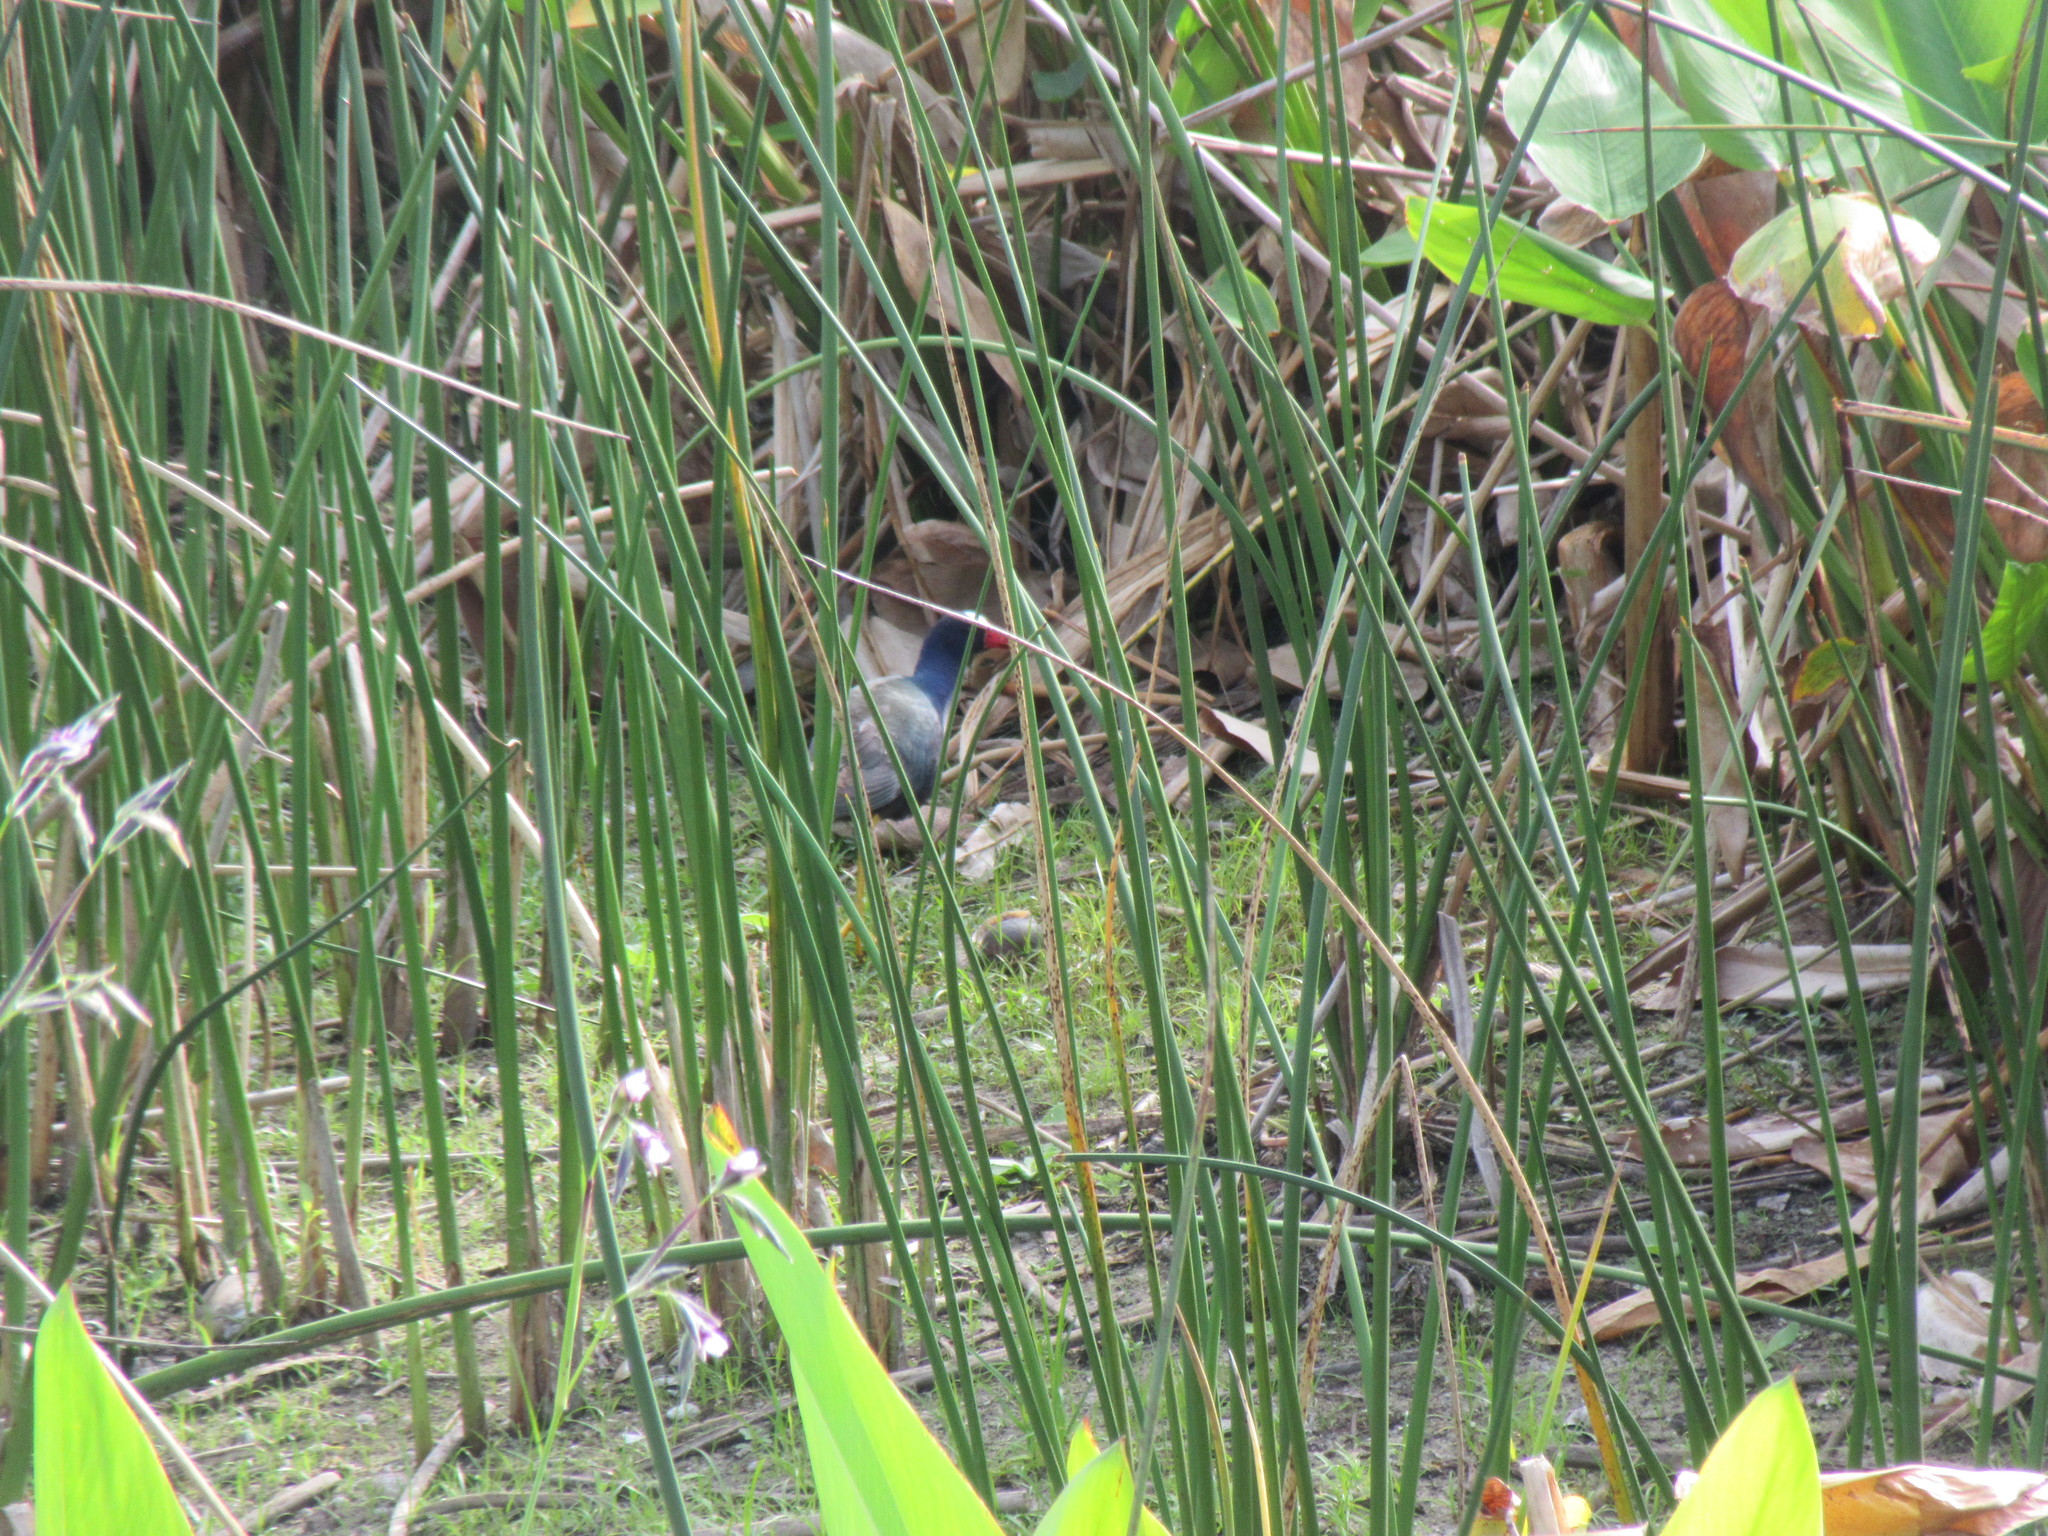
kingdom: Animalia
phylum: Chordata
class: Aves
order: Gruiformes
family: Rallidae
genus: Porphyrio
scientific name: Porphyrio martinica
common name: Purple gallinule
